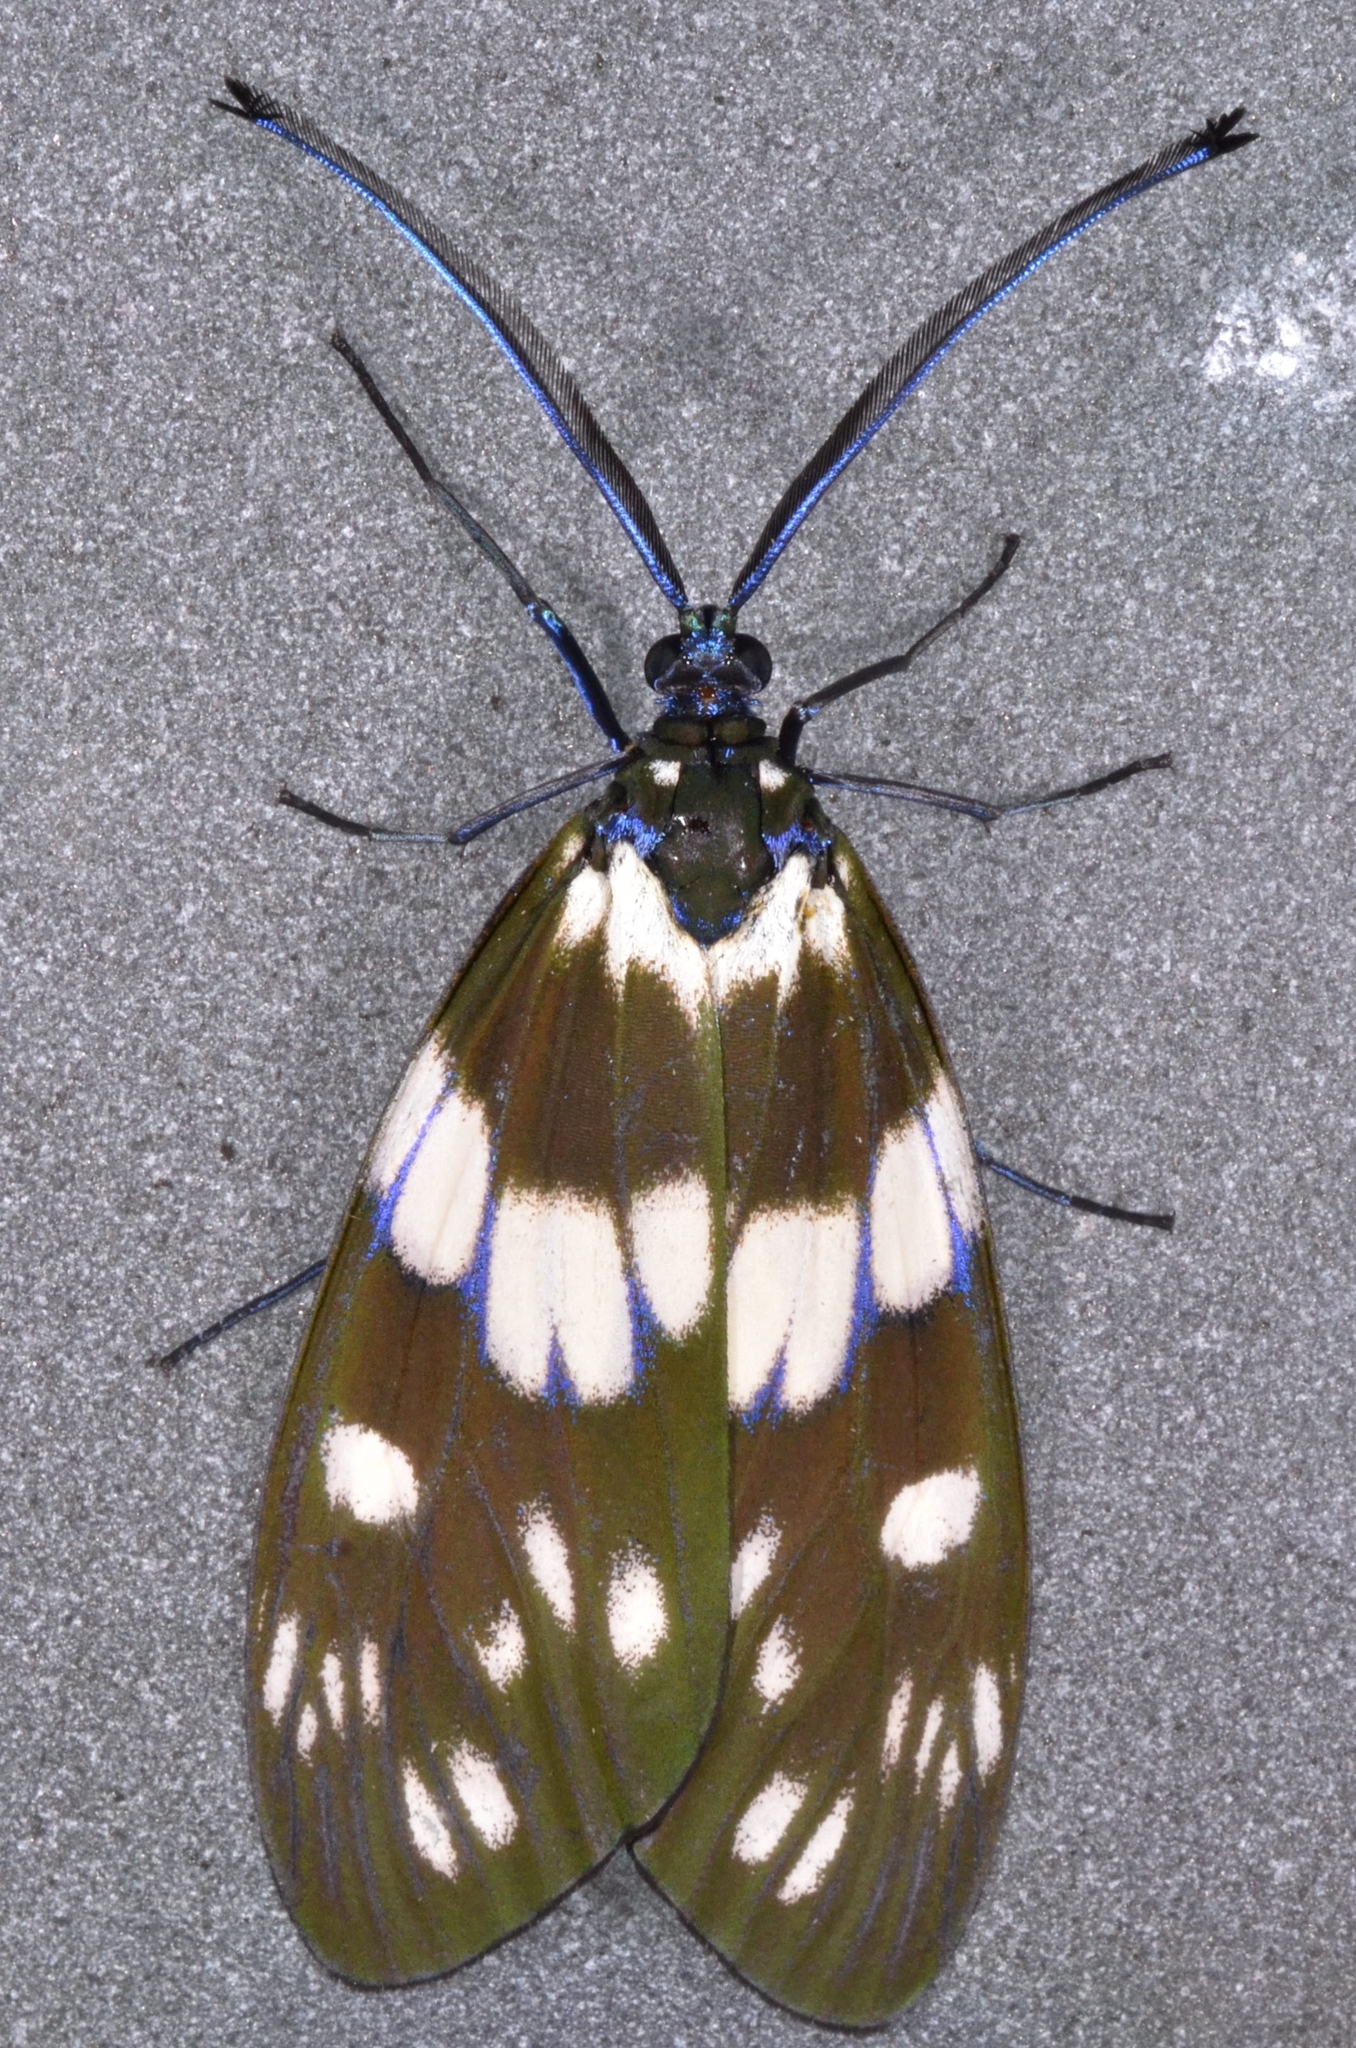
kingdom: Animalia
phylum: Arthropoda
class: Insecta
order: Lepidoptera
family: Zygaenidae
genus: Eterusia
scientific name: Eterusia aedea
